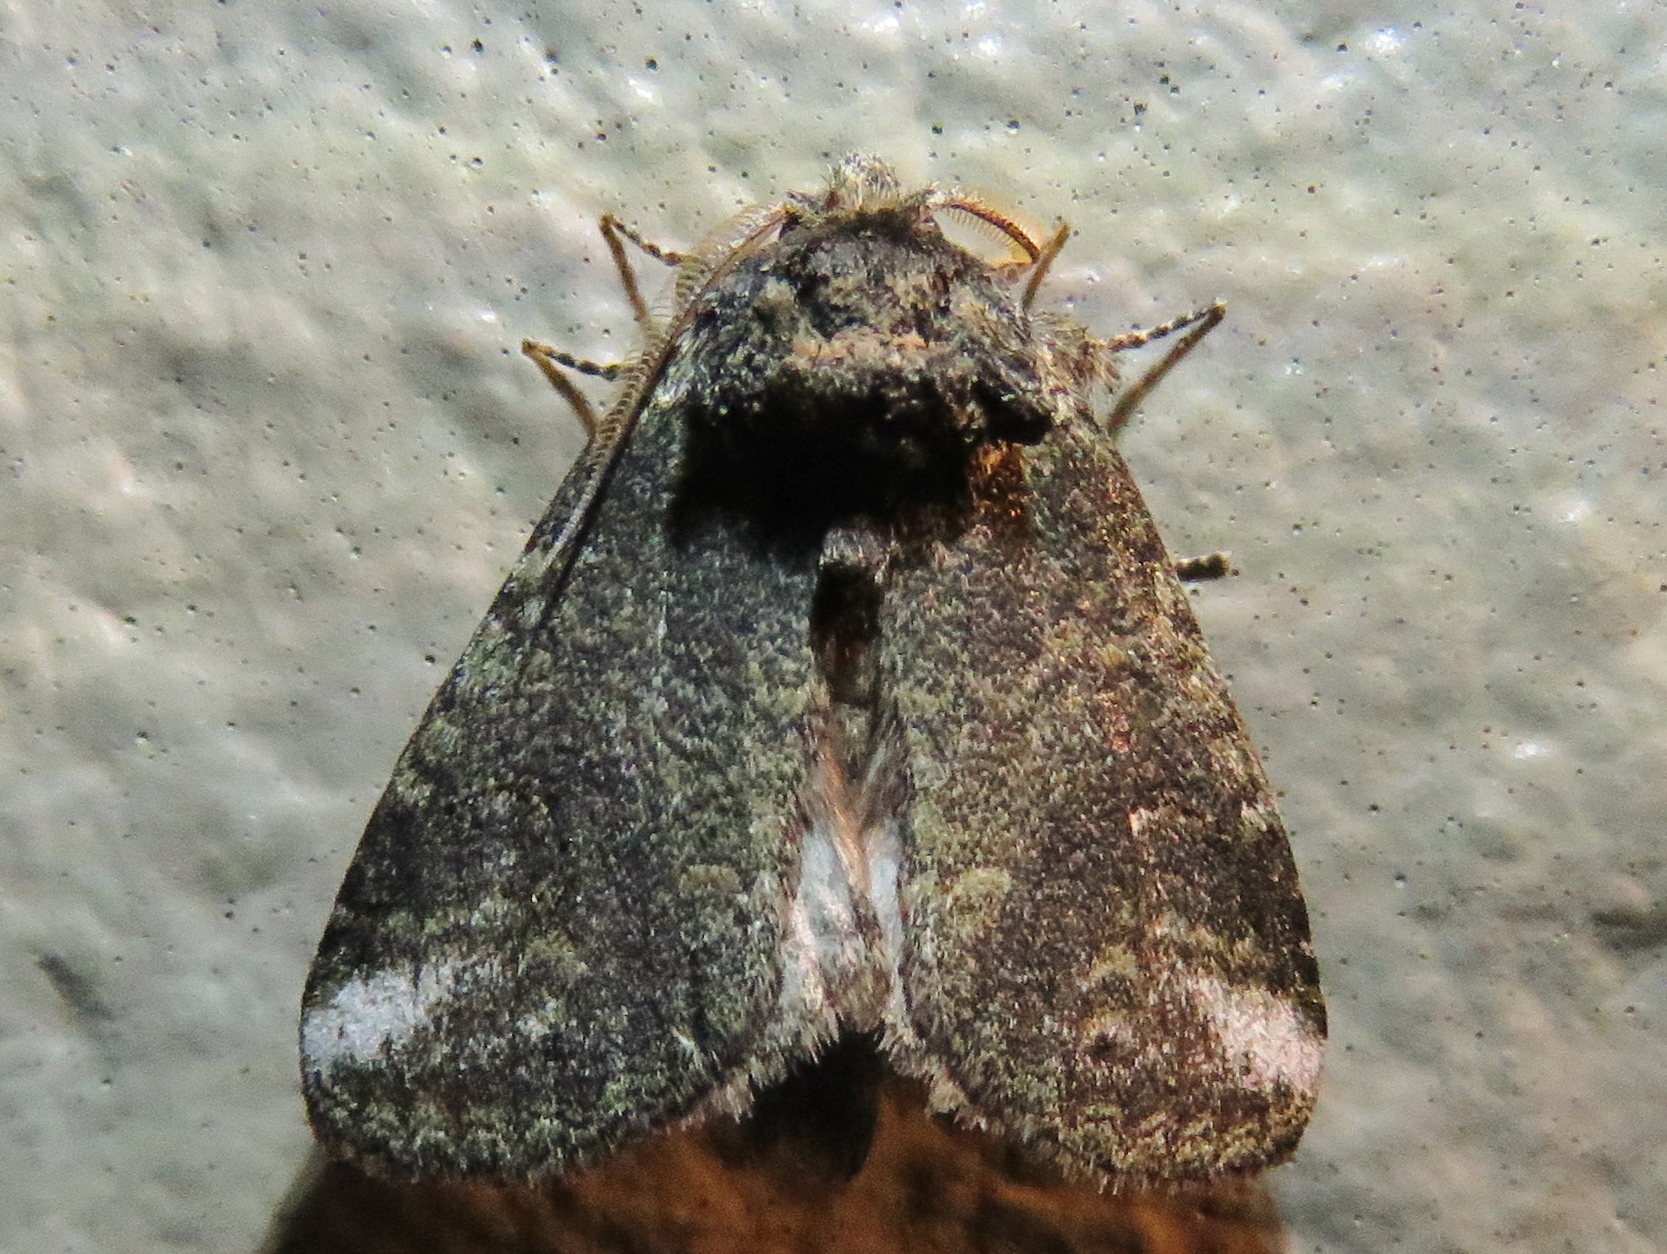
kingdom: Animalia
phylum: Arthropoda
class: Insecta
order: Lepidoptera
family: Notodontidae
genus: Rifargia
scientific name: Rifargia
